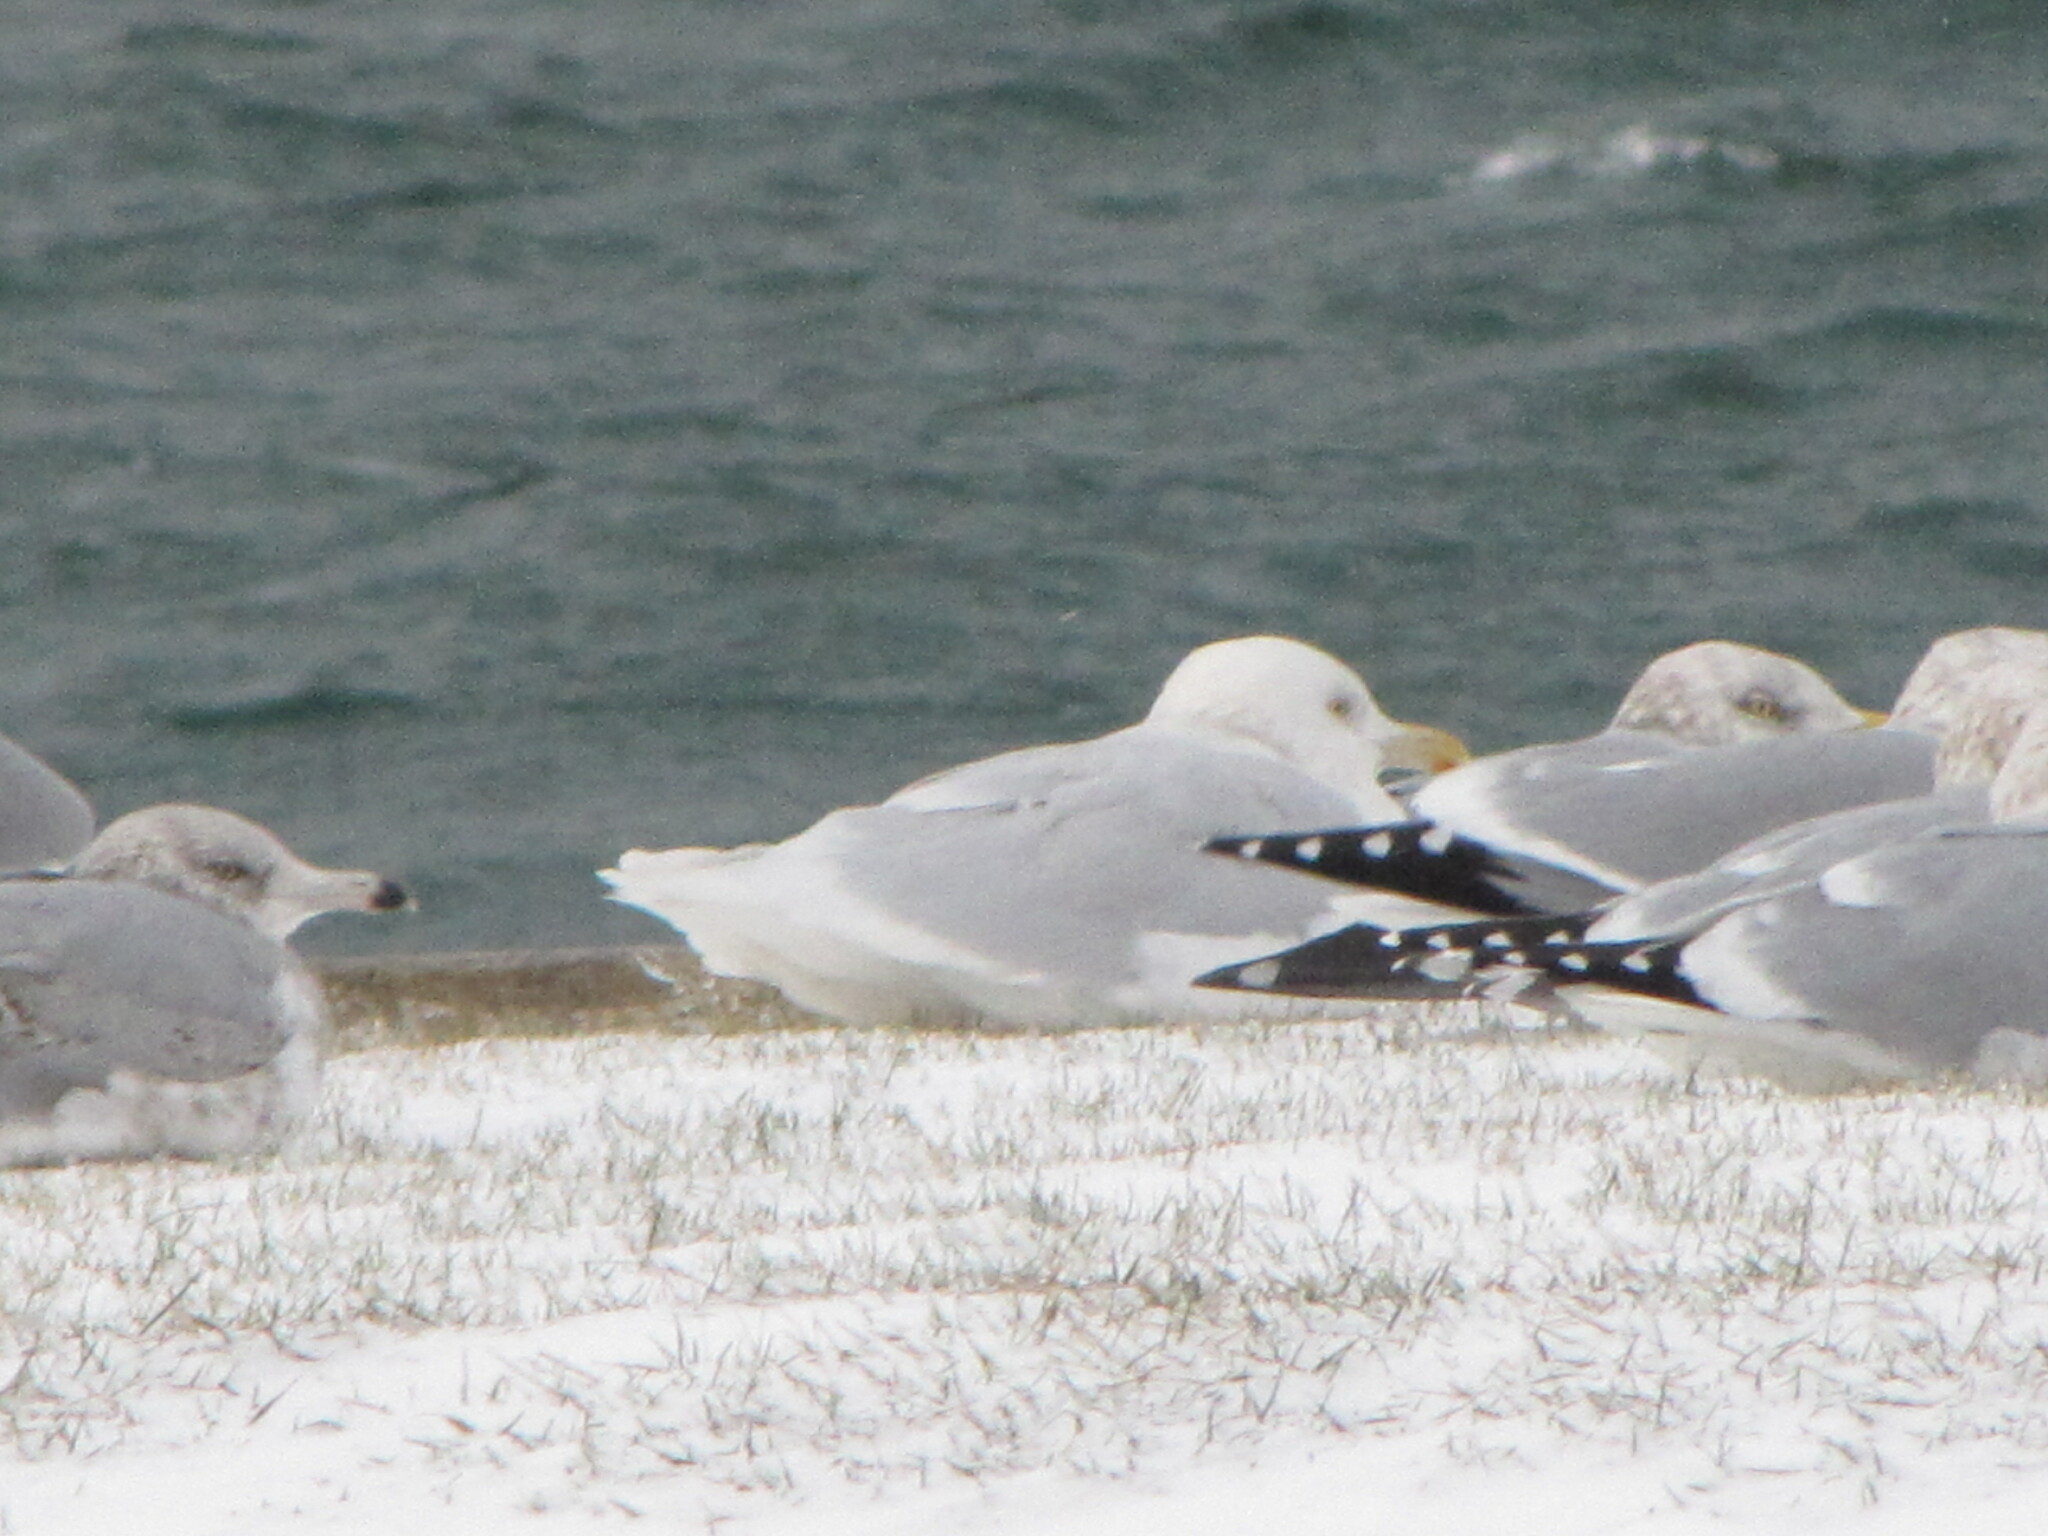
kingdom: Animalia
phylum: Chordata
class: Aves
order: Charadriiformes
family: Laridae
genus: Larus
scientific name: Larus hyperboreus
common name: Glaucous gull
